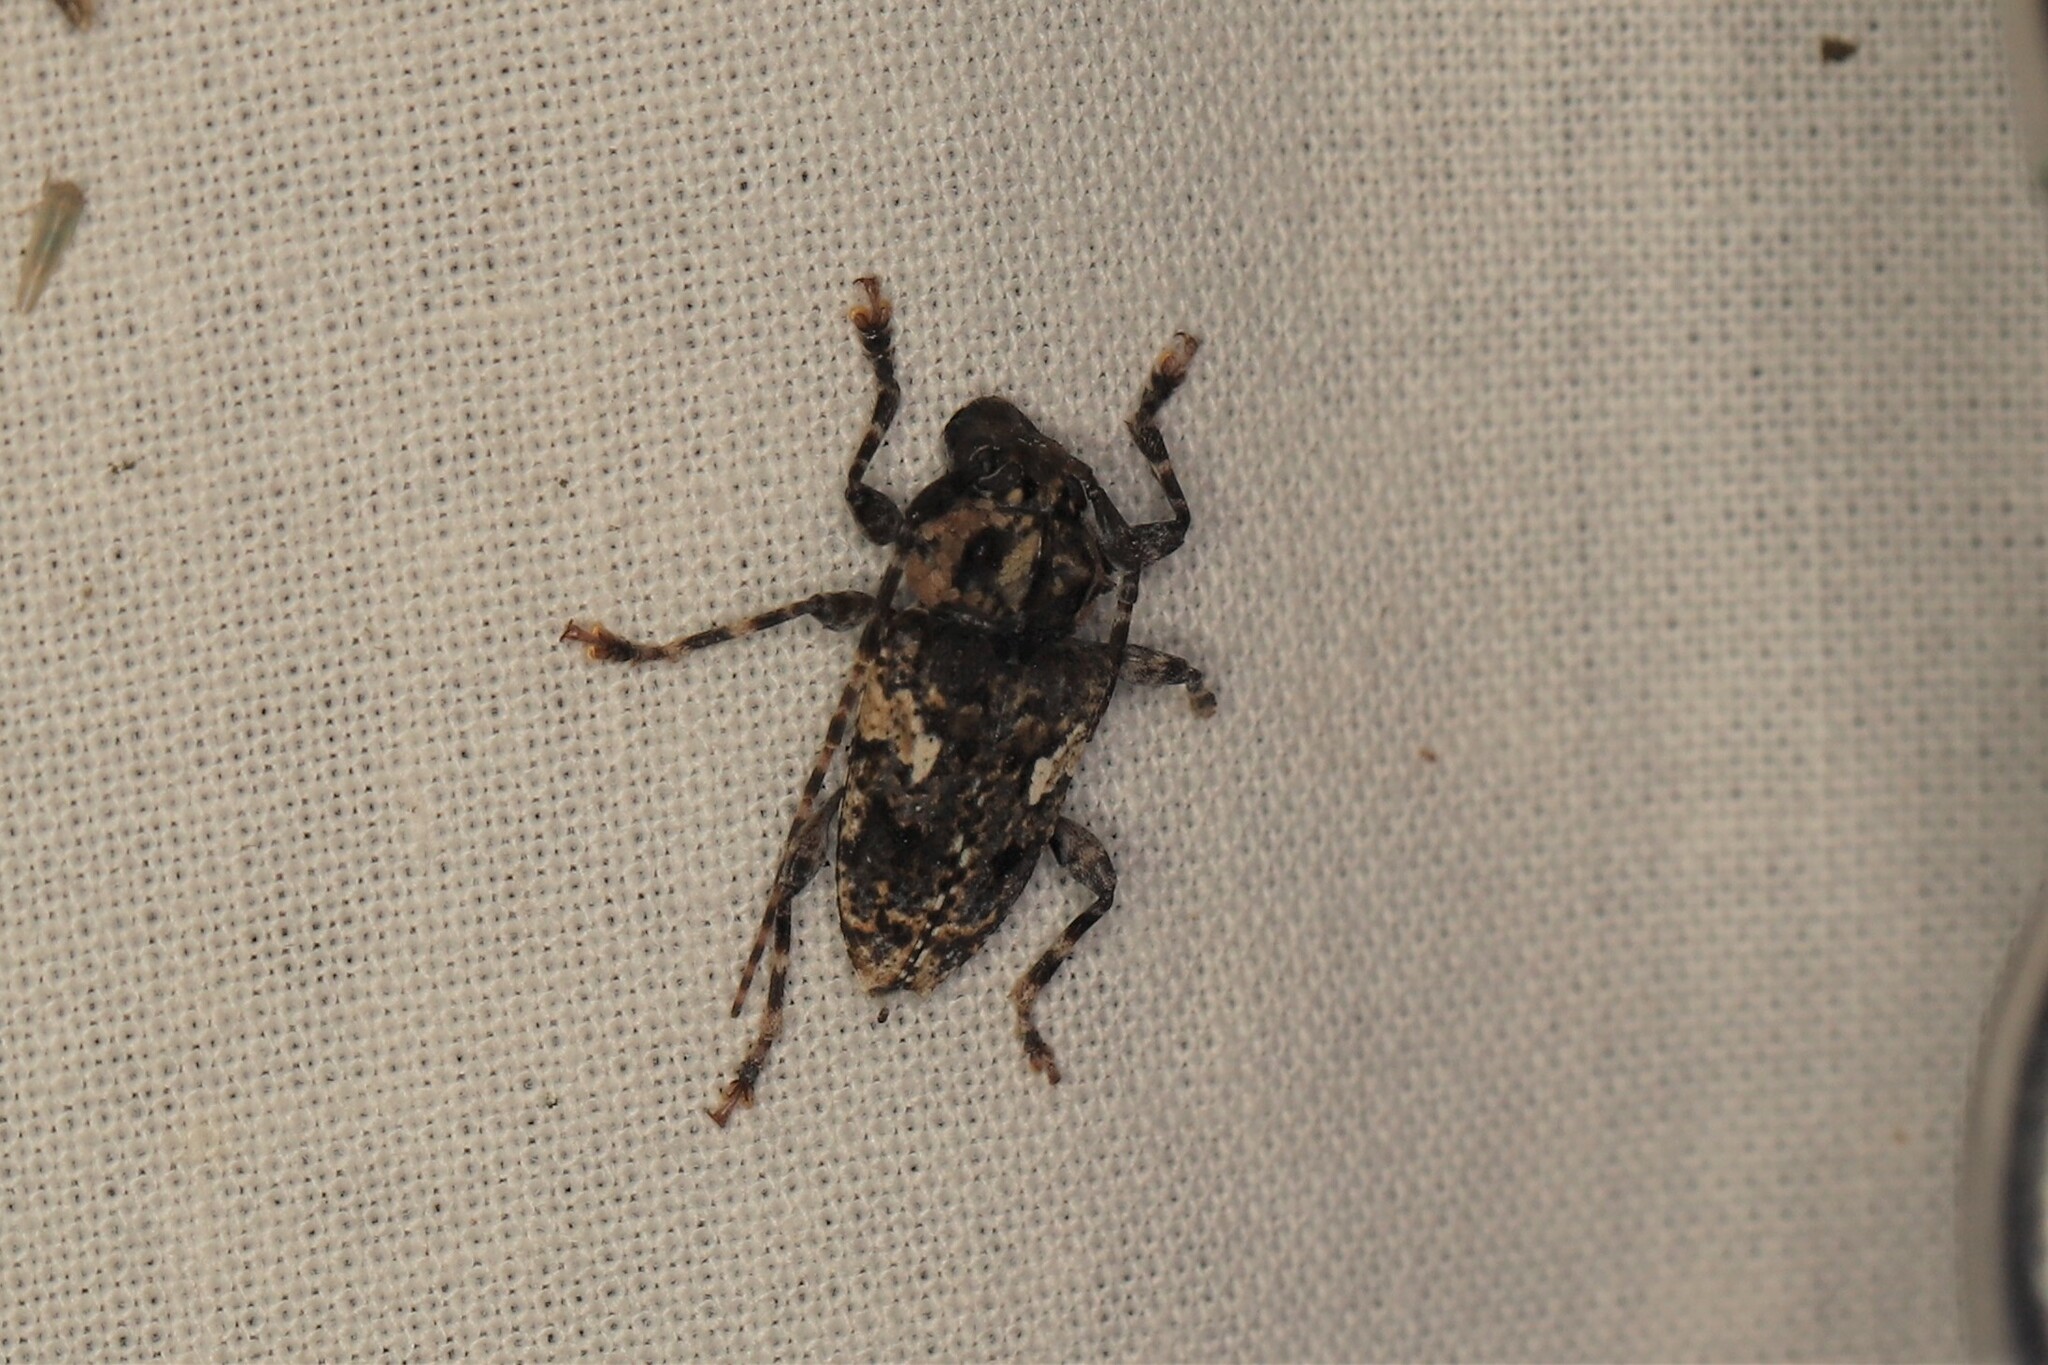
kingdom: Animalia
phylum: Arthropoda
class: Insecta
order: Coleoptera
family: Cerambycidae
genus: Psapharochrus
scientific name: Psapharochrus circumflexus
